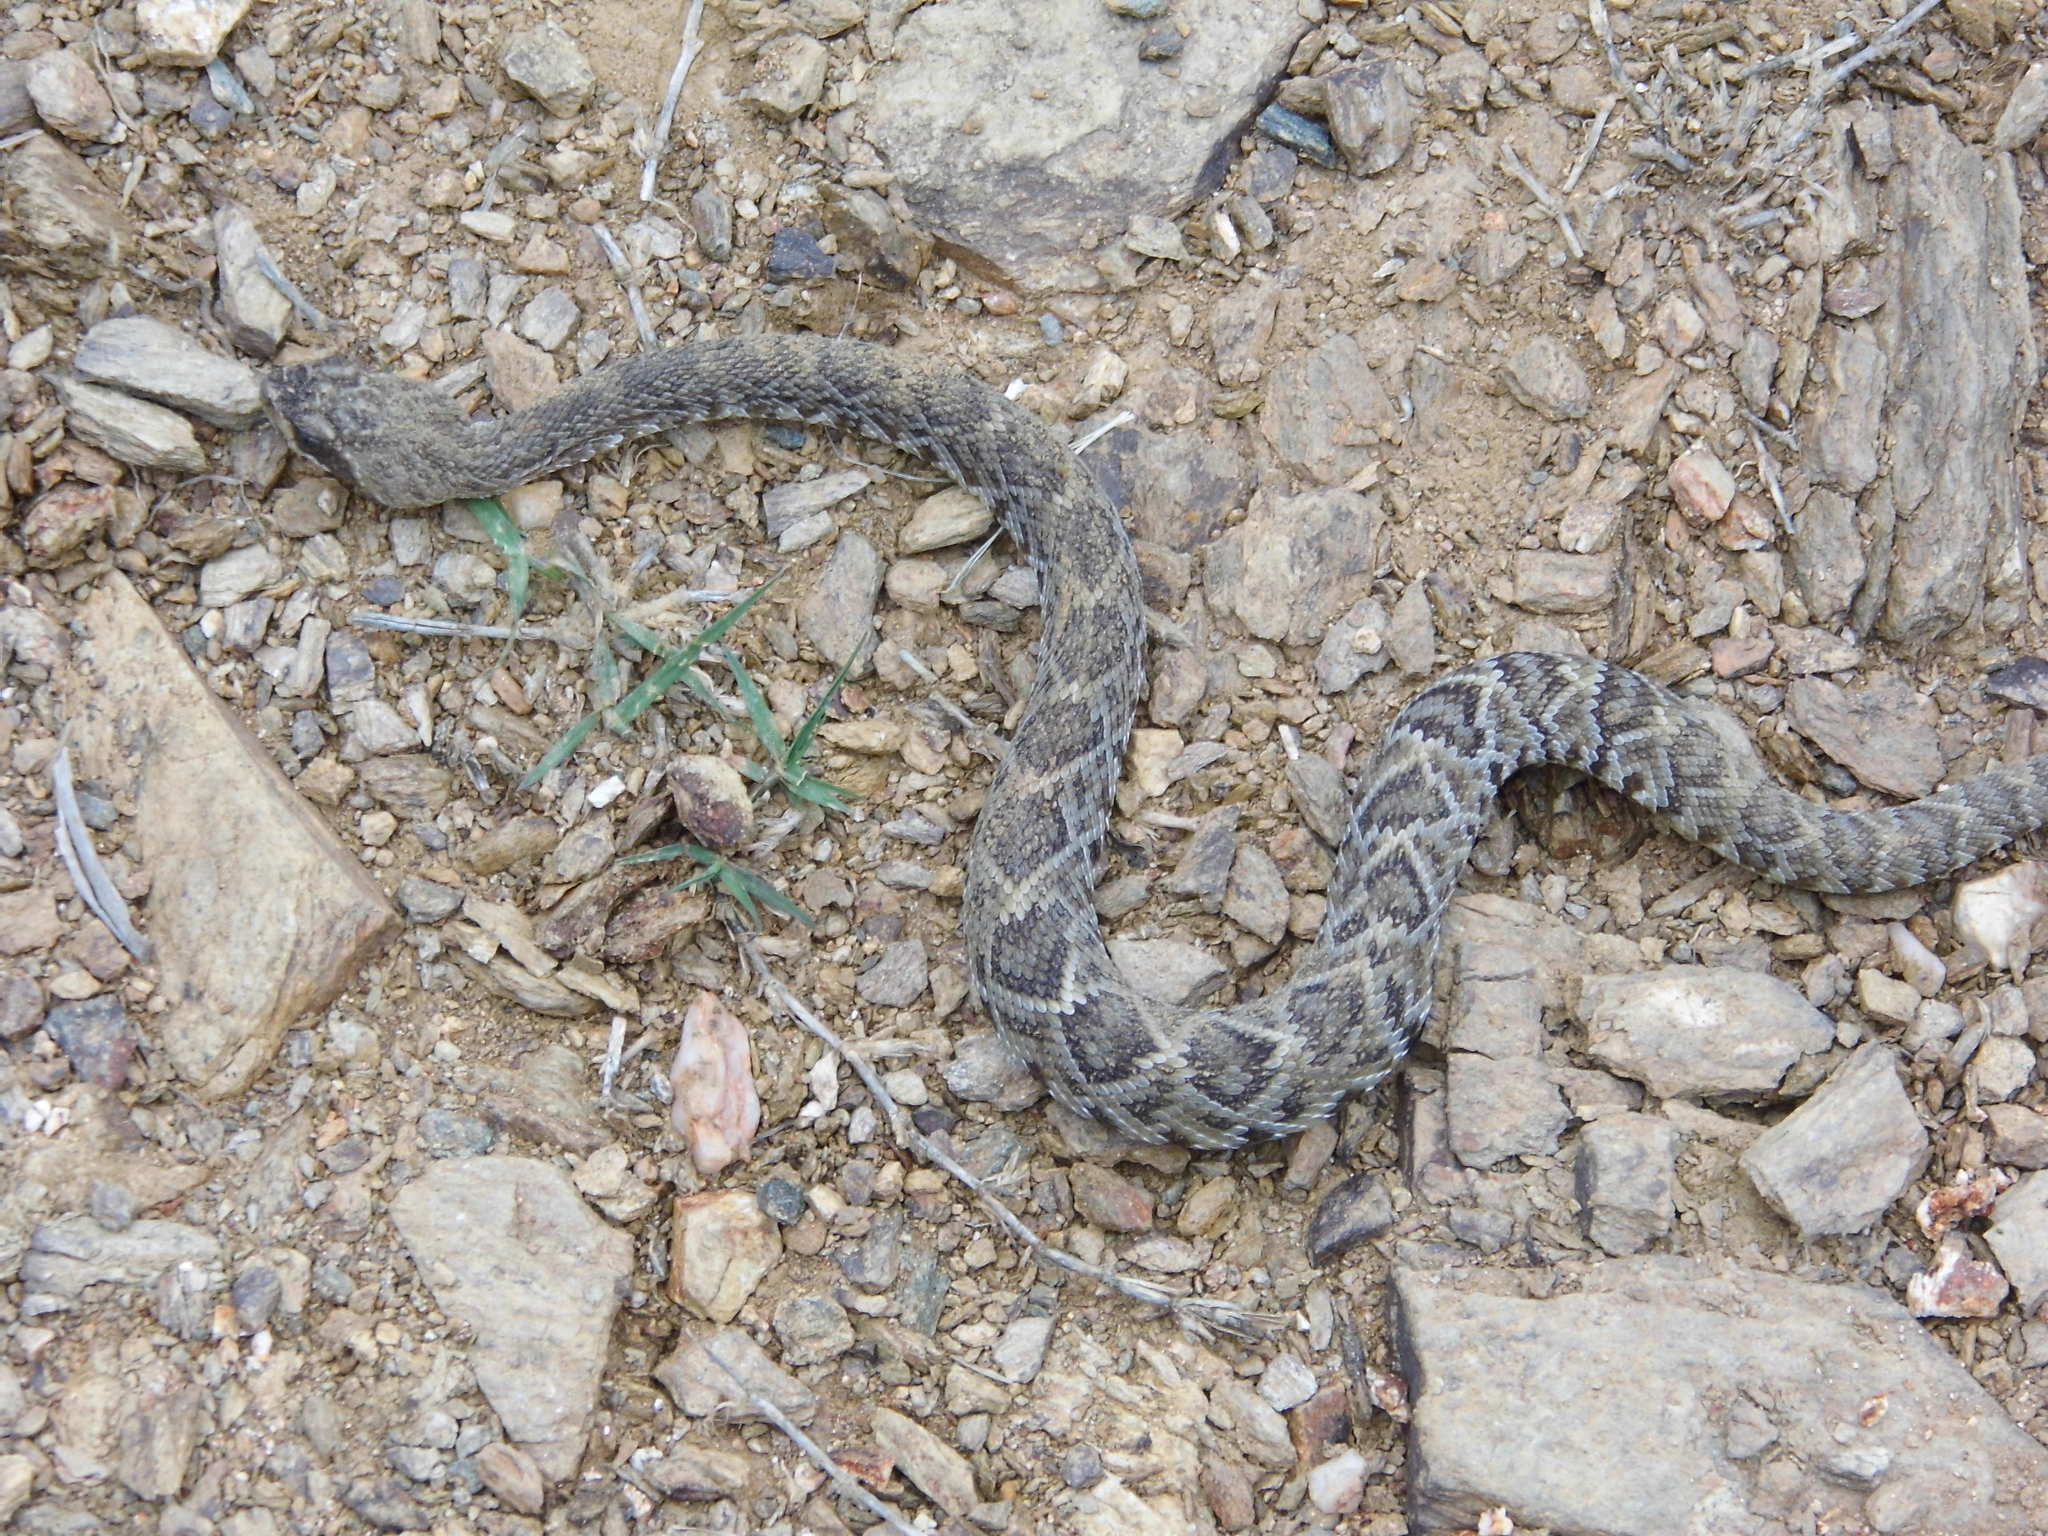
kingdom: Animalia
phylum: Chordata
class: Squamata
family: Viperidae
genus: Crotalus
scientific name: Crotalus molossus
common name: Black tailed rattlesnake
